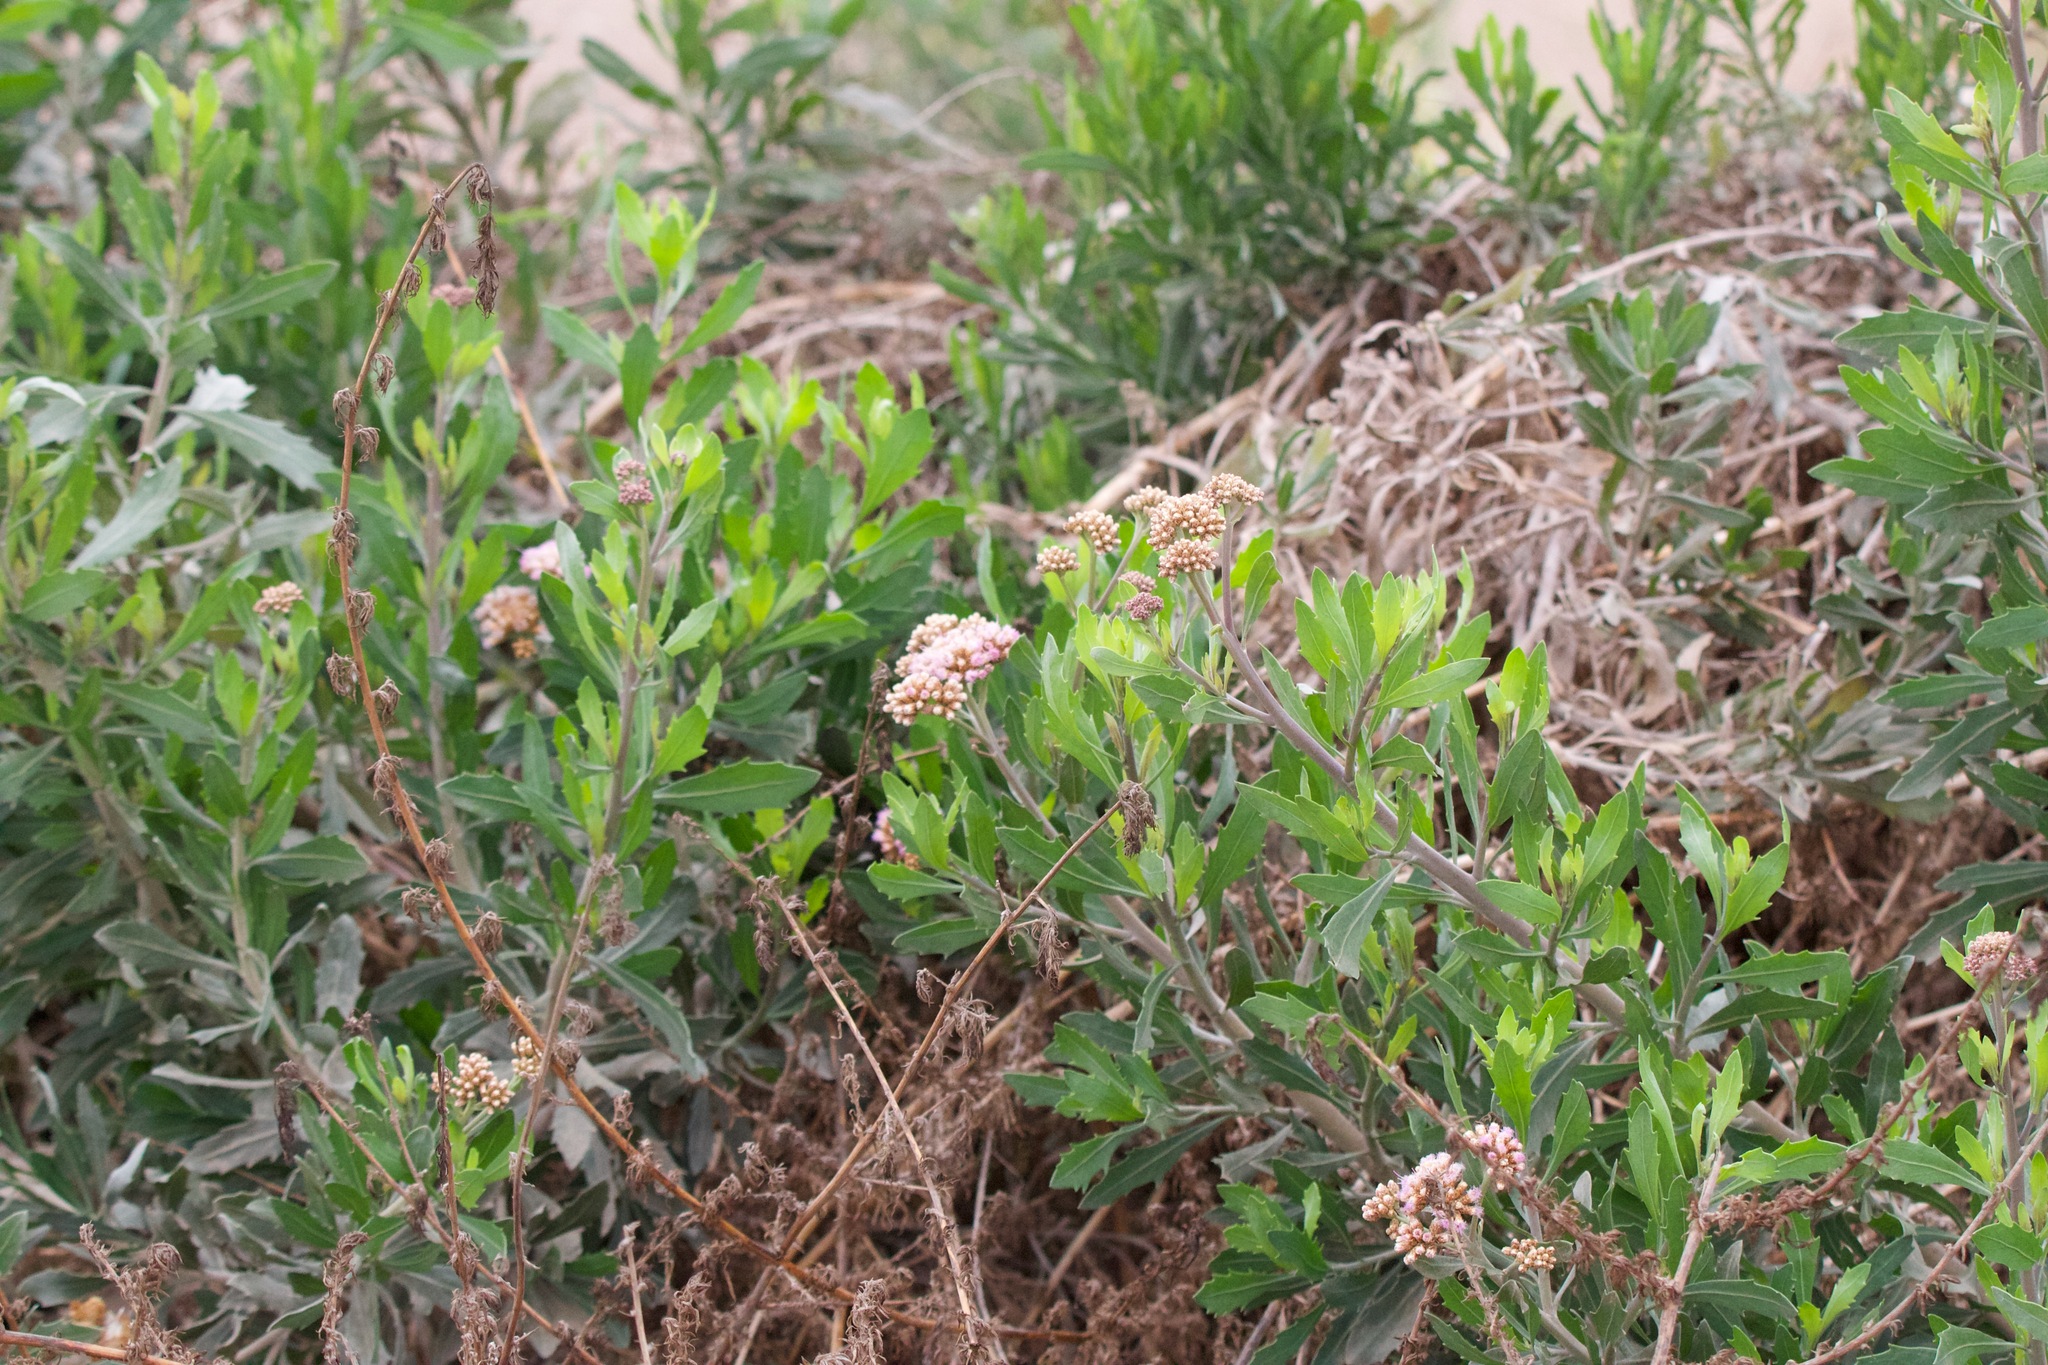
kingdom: Plantae
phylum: Tracheophyta
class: Magnoliopsida
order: Asterales
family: Asteraceae
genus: Tessaria
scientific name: Tessaria absinthioides
